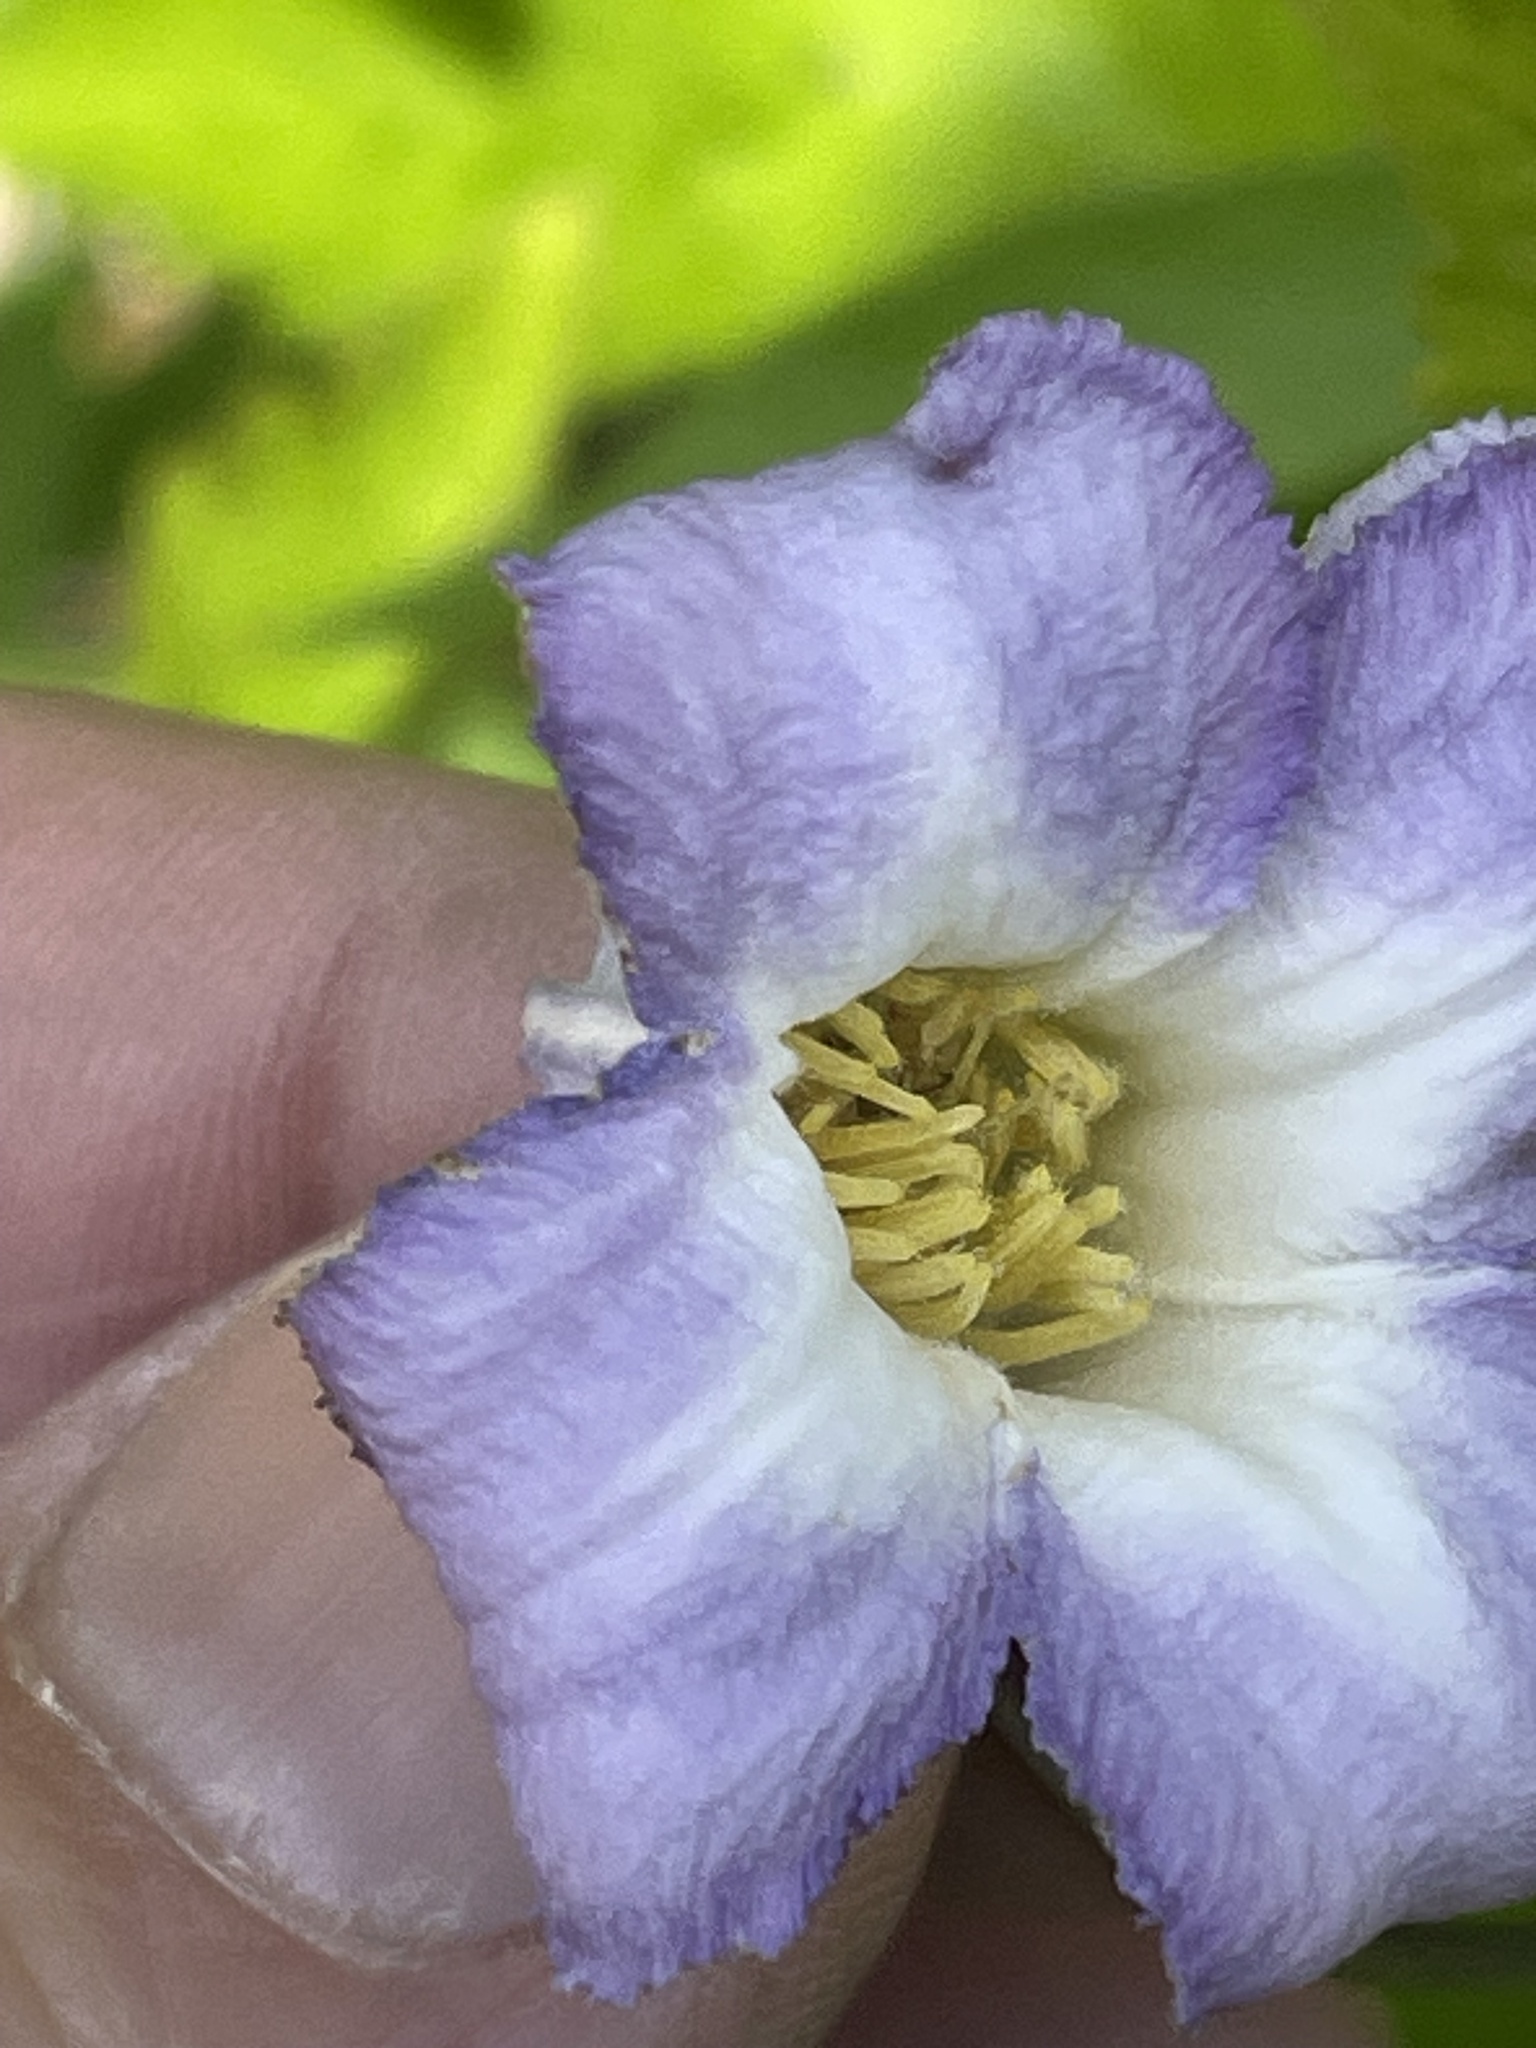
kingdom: Plantae
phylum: Tracheophyta
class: Magnoliopsida
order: Ranunculales
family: Ranunculaceae
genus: Clematis
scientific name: Clematis crispa
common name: Curly clematis
